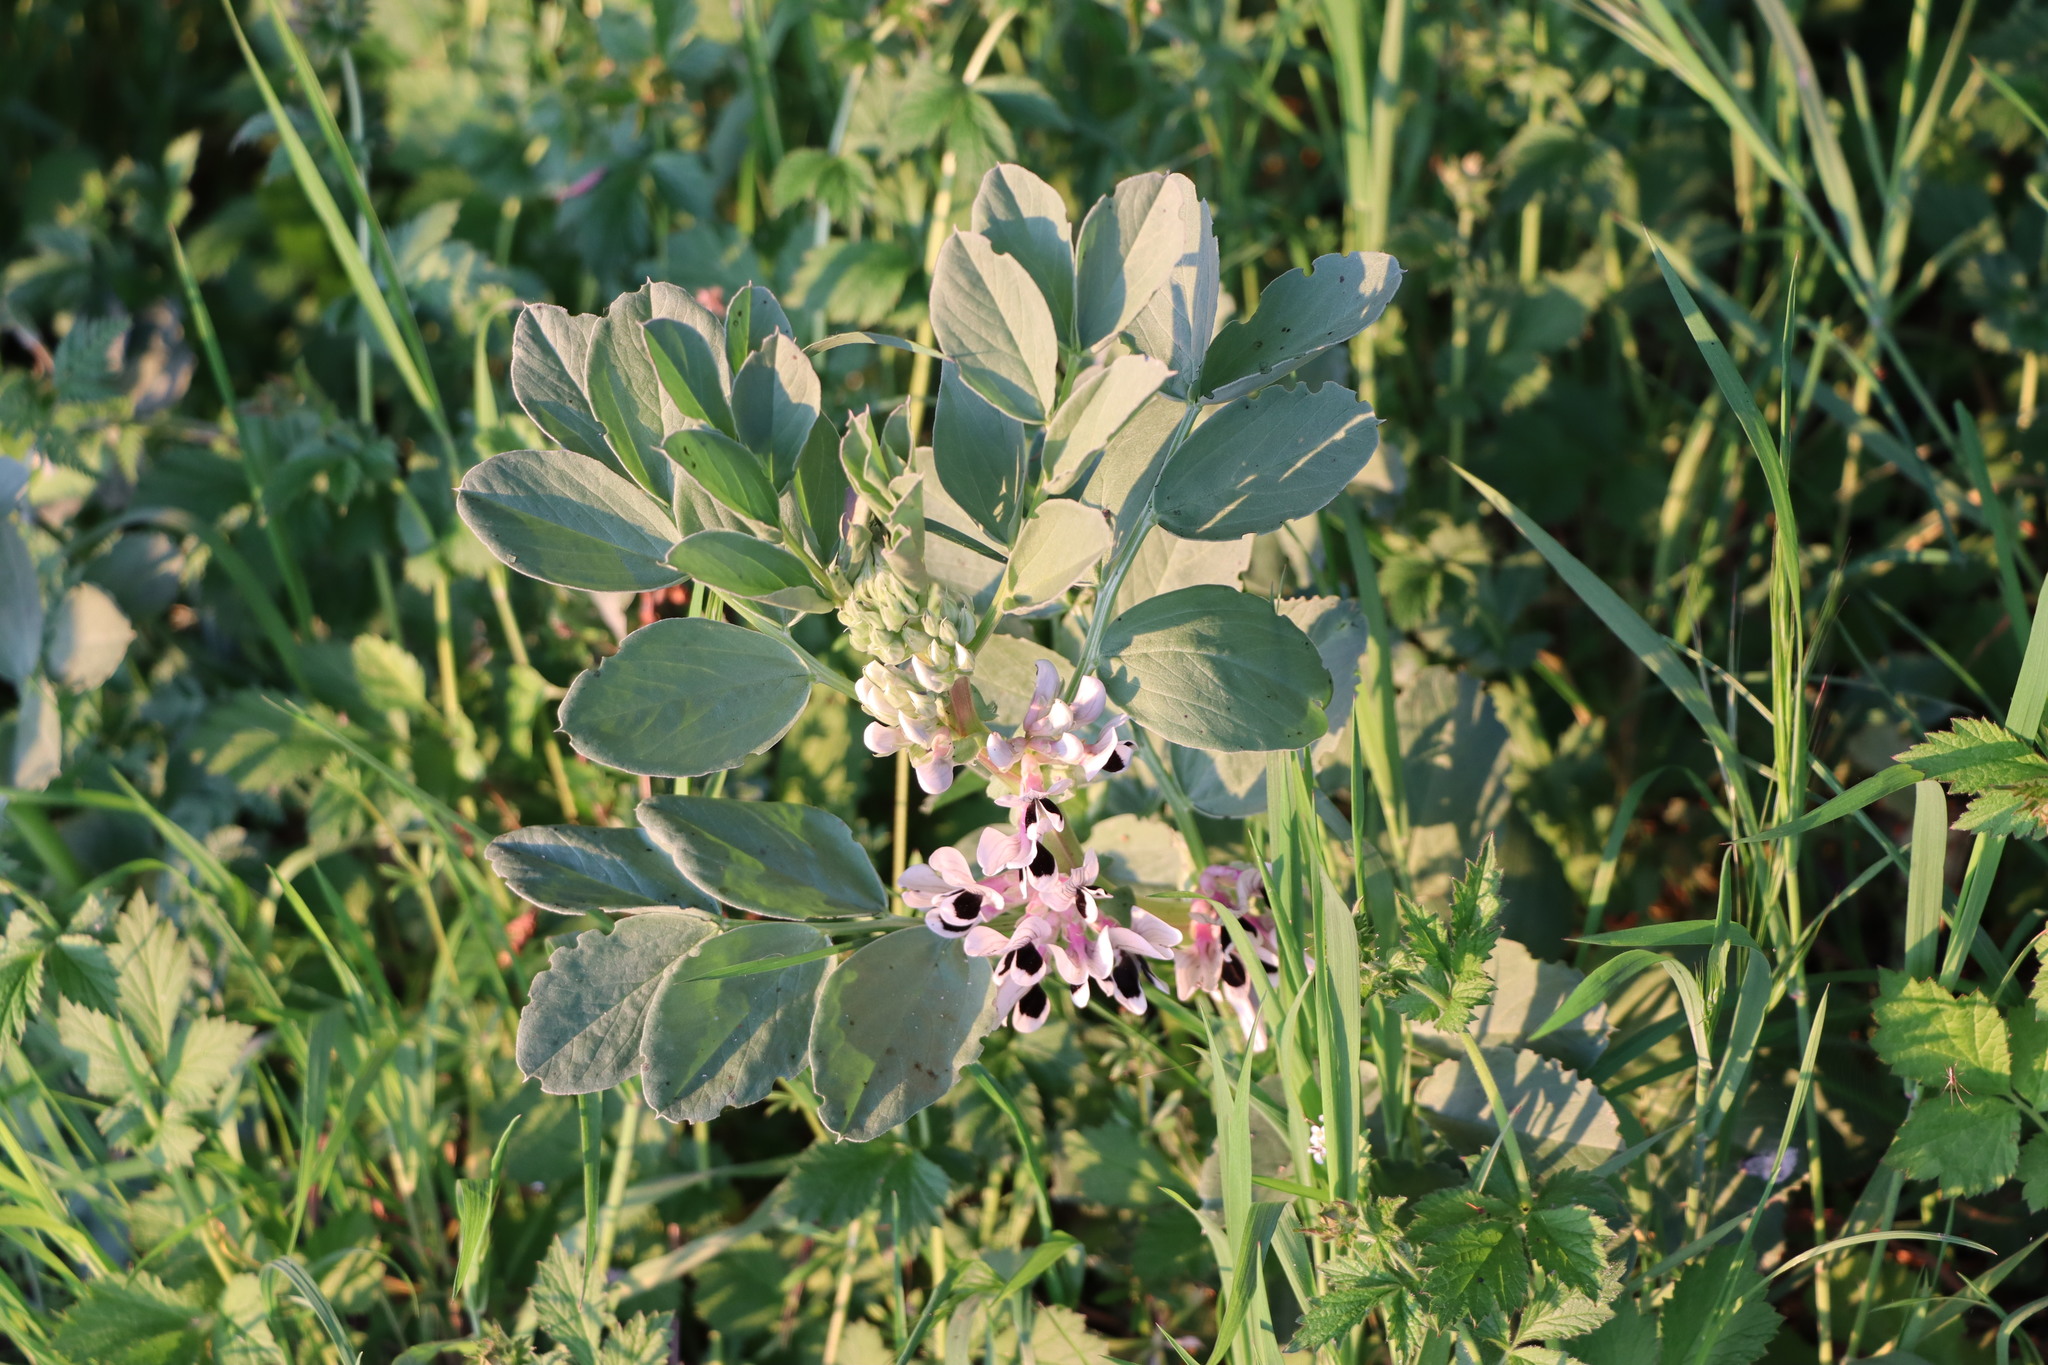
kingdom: Plantae
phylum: Tracheophyta
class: Magnoliopsida
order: Fabales
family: Fabaceae
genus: Vicia
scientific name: Vicia faba
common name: Broad bean
